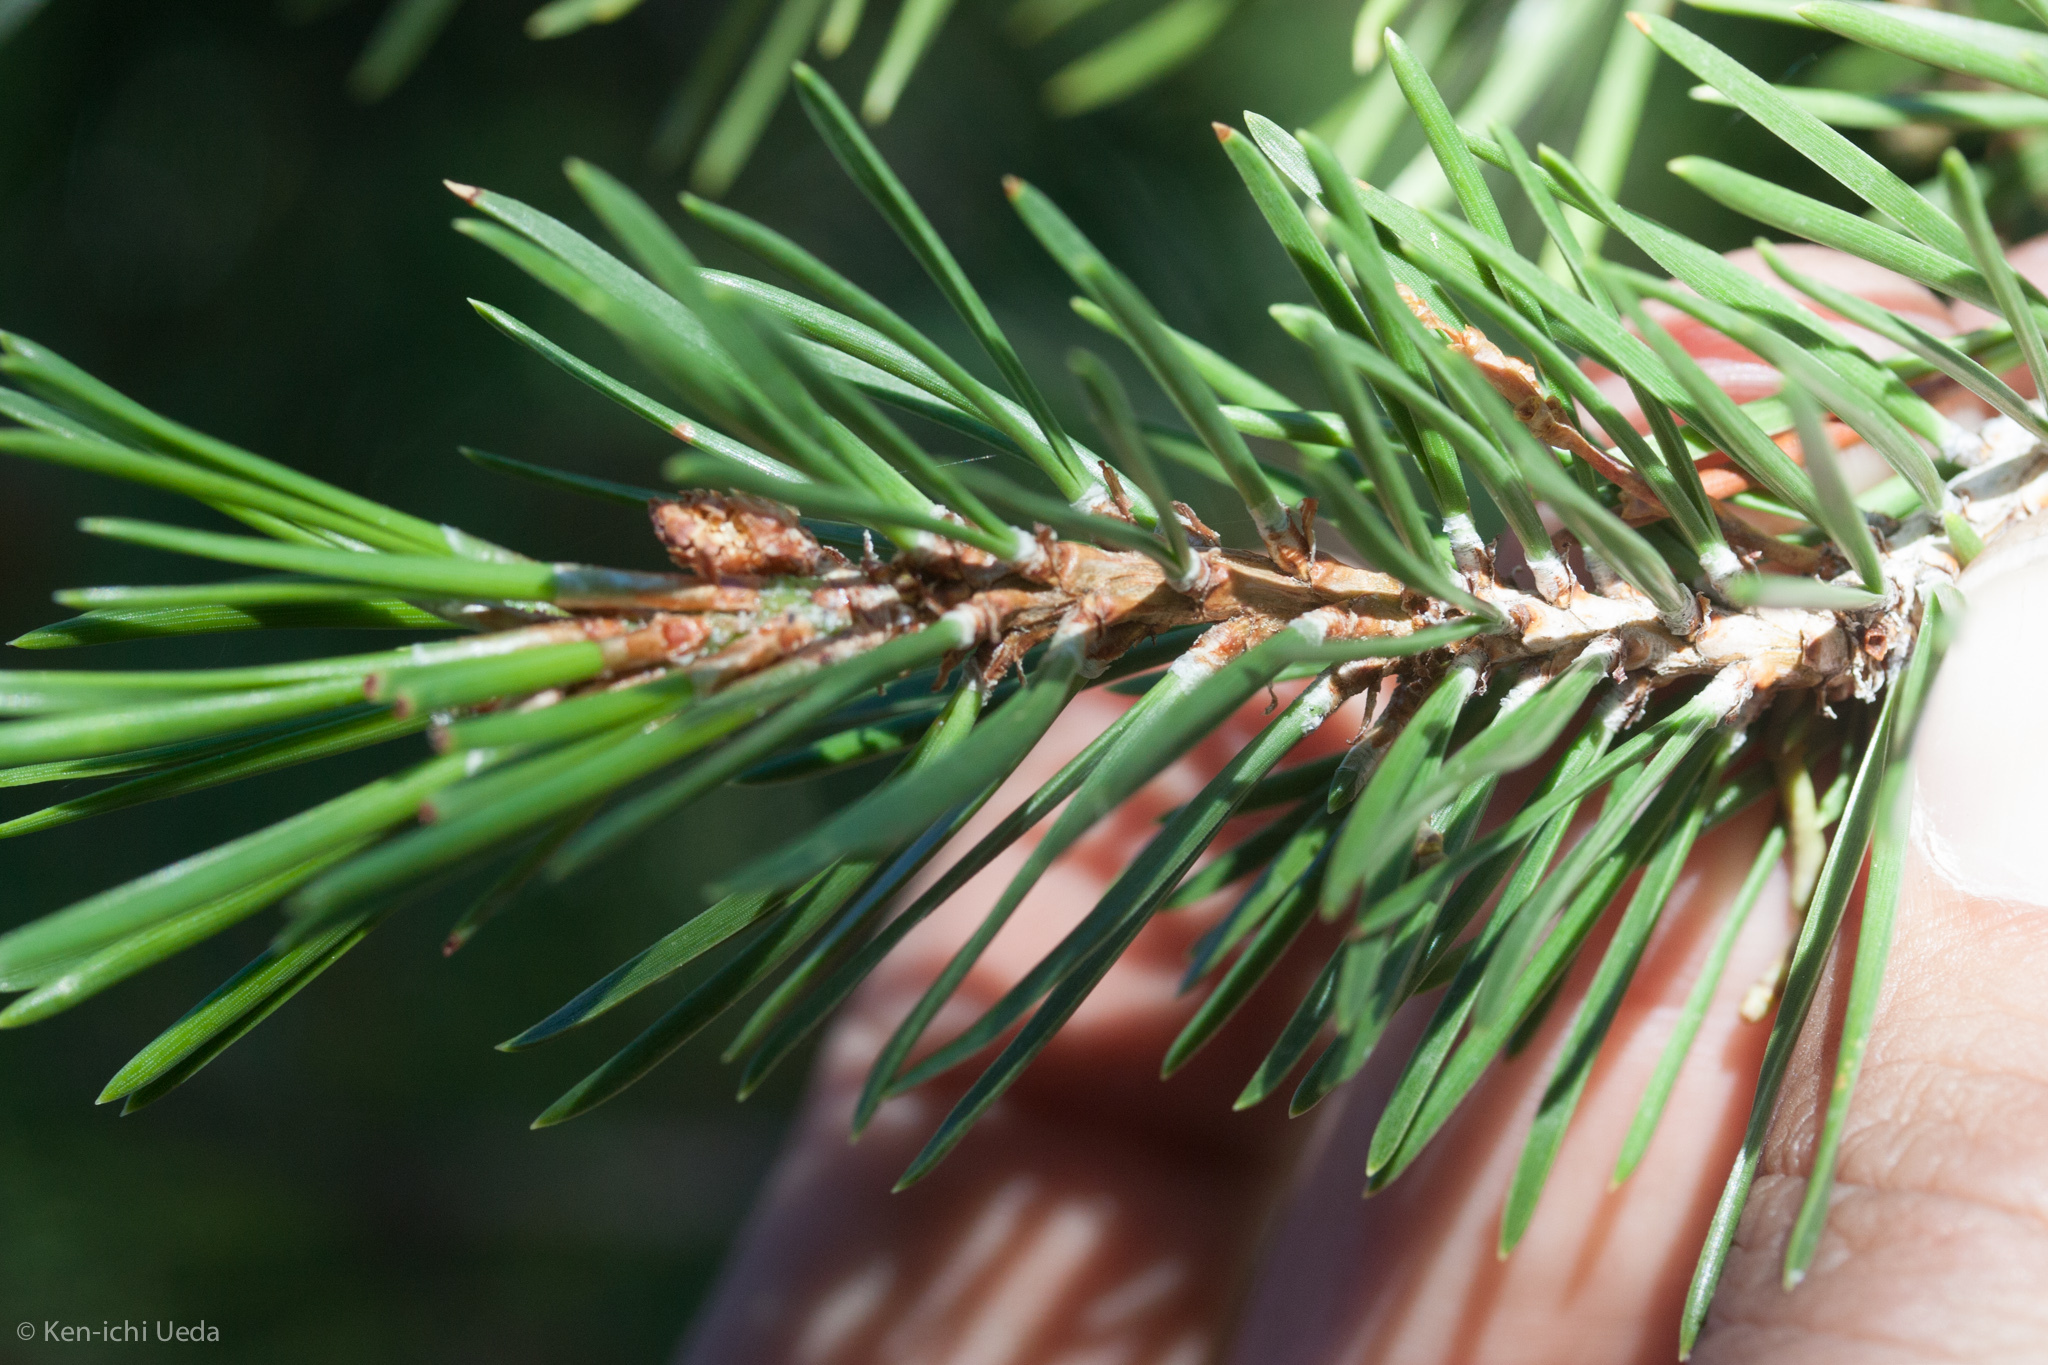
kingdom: Plantae
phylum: Tracheophyta
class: Pinopsida
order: Pinales
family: Pinaceae
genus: Pinus
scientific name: Pinus contorta
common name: Lodgepole pine
